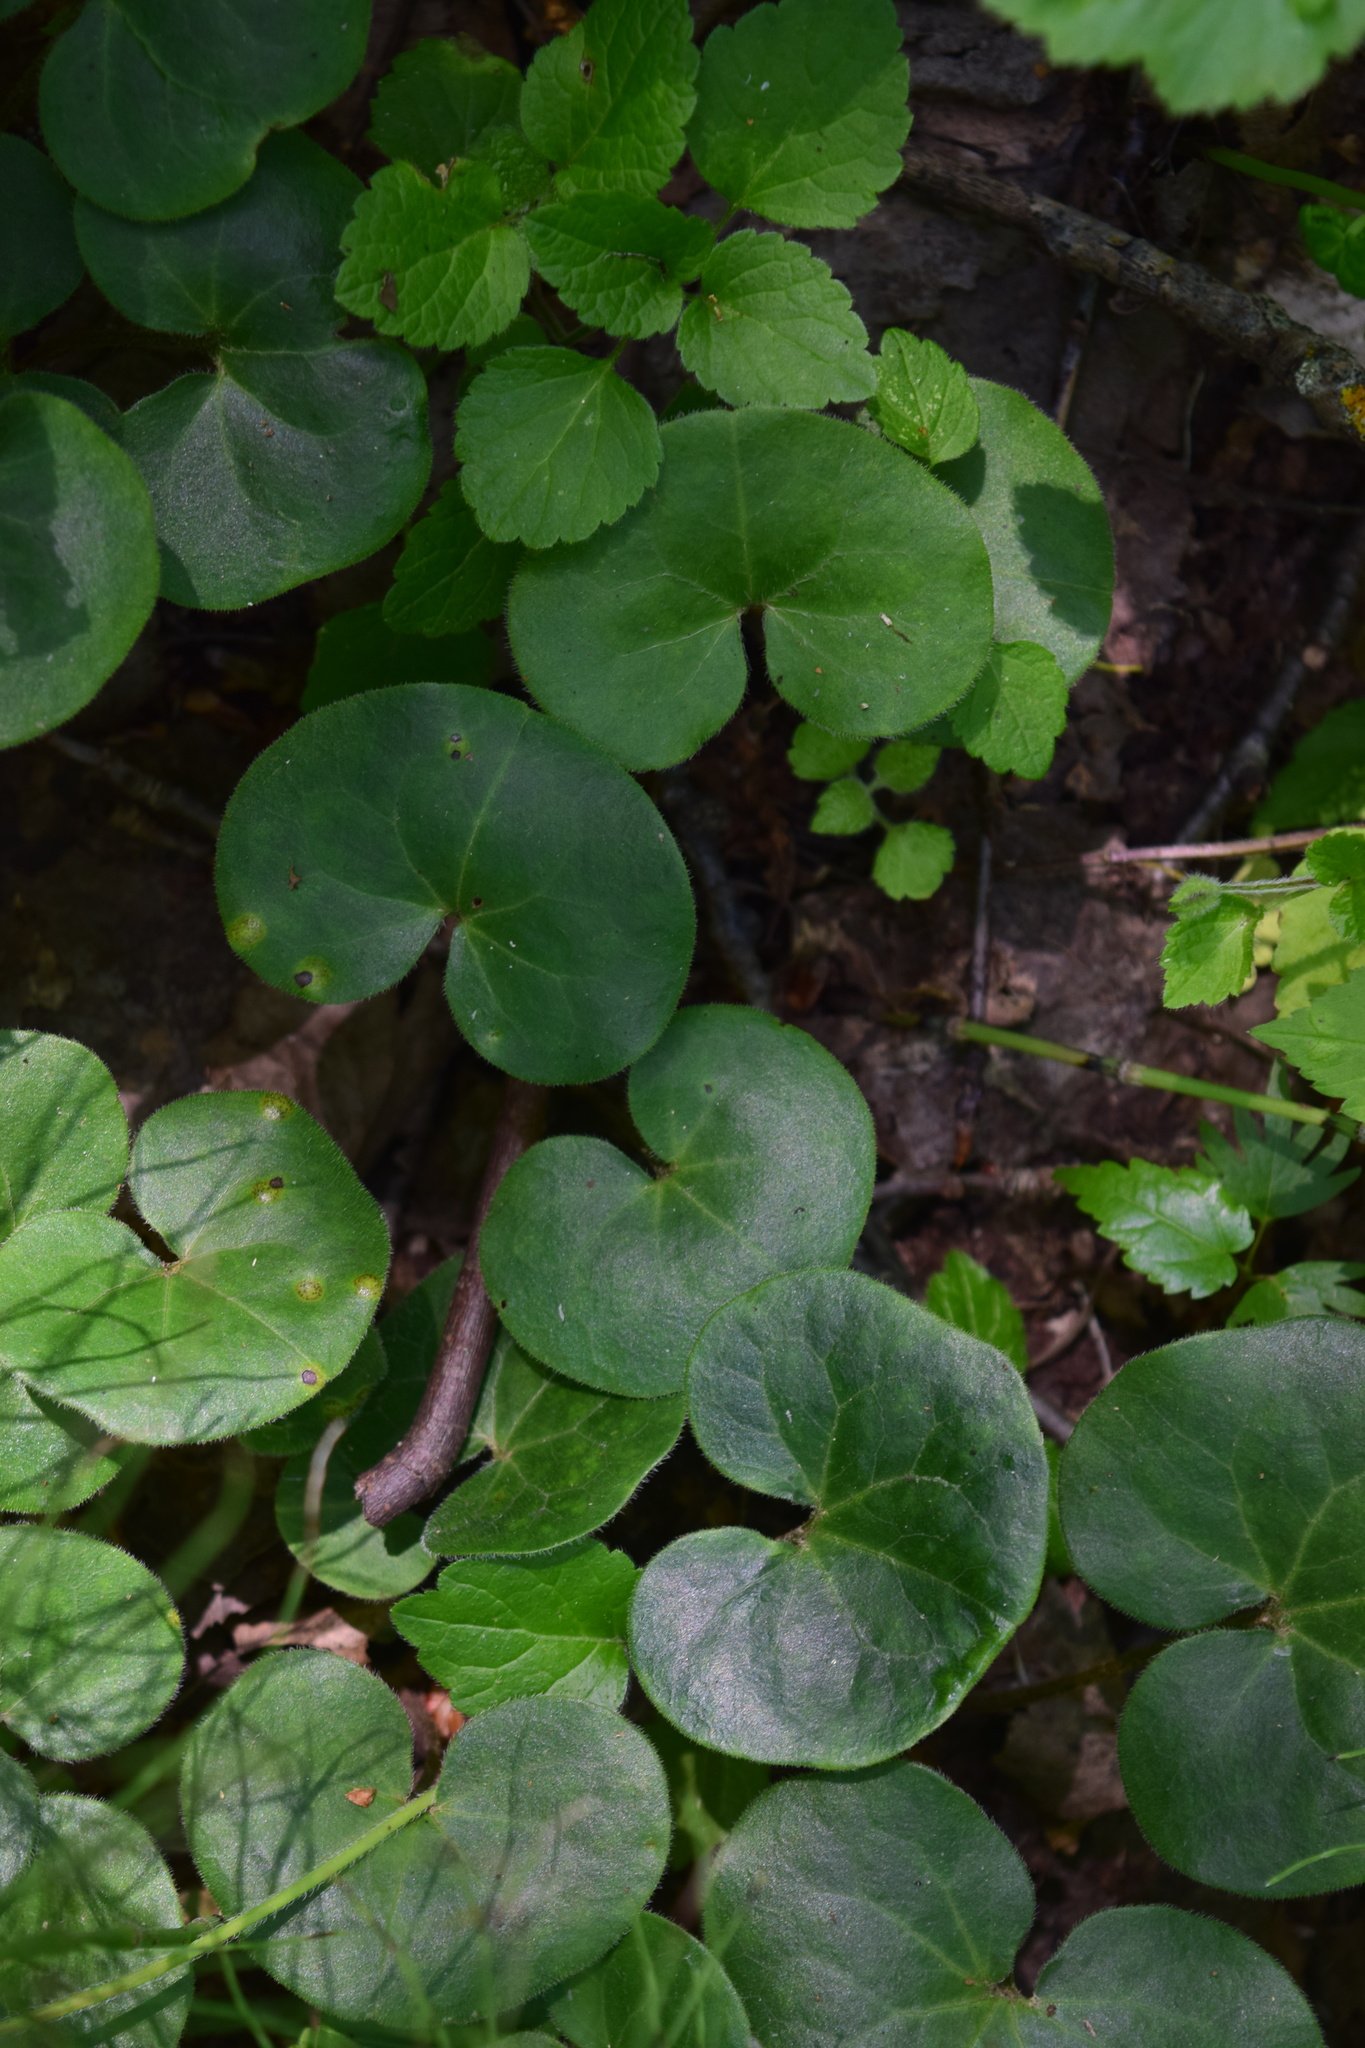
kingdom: Plantae
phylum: Tracheophyta
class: Magnoliopsida
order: Piperales
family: Aristolochiaceae
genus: Asarum
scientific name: Asarum europaeum
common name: Asarabacca
